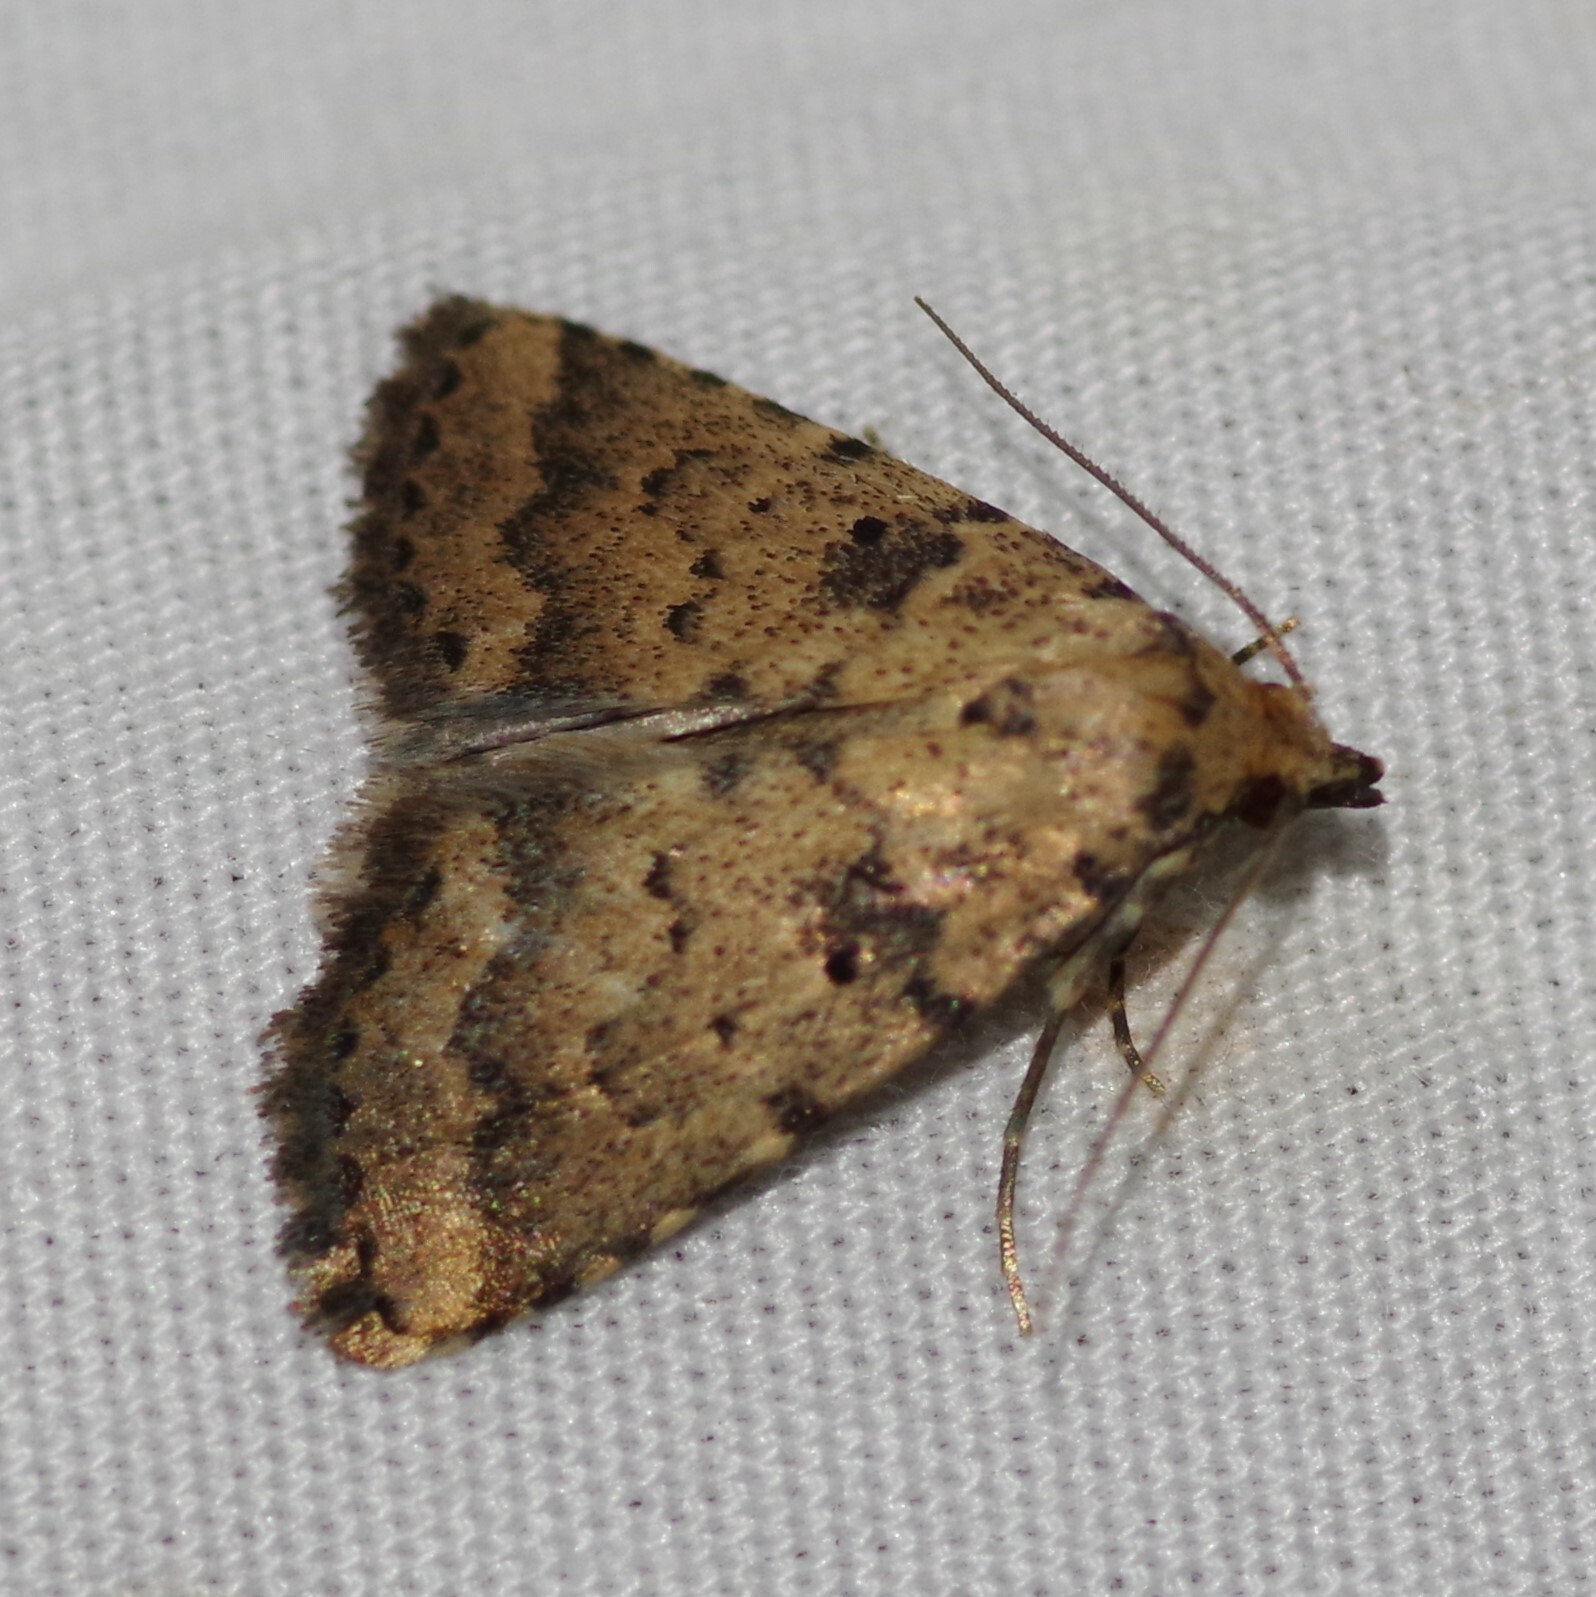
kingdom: Animalia
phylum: Arthropoda
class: Insecta
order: Lepidoptera
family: Erebidae
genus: Arugisa
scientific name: Arugisa lutea
